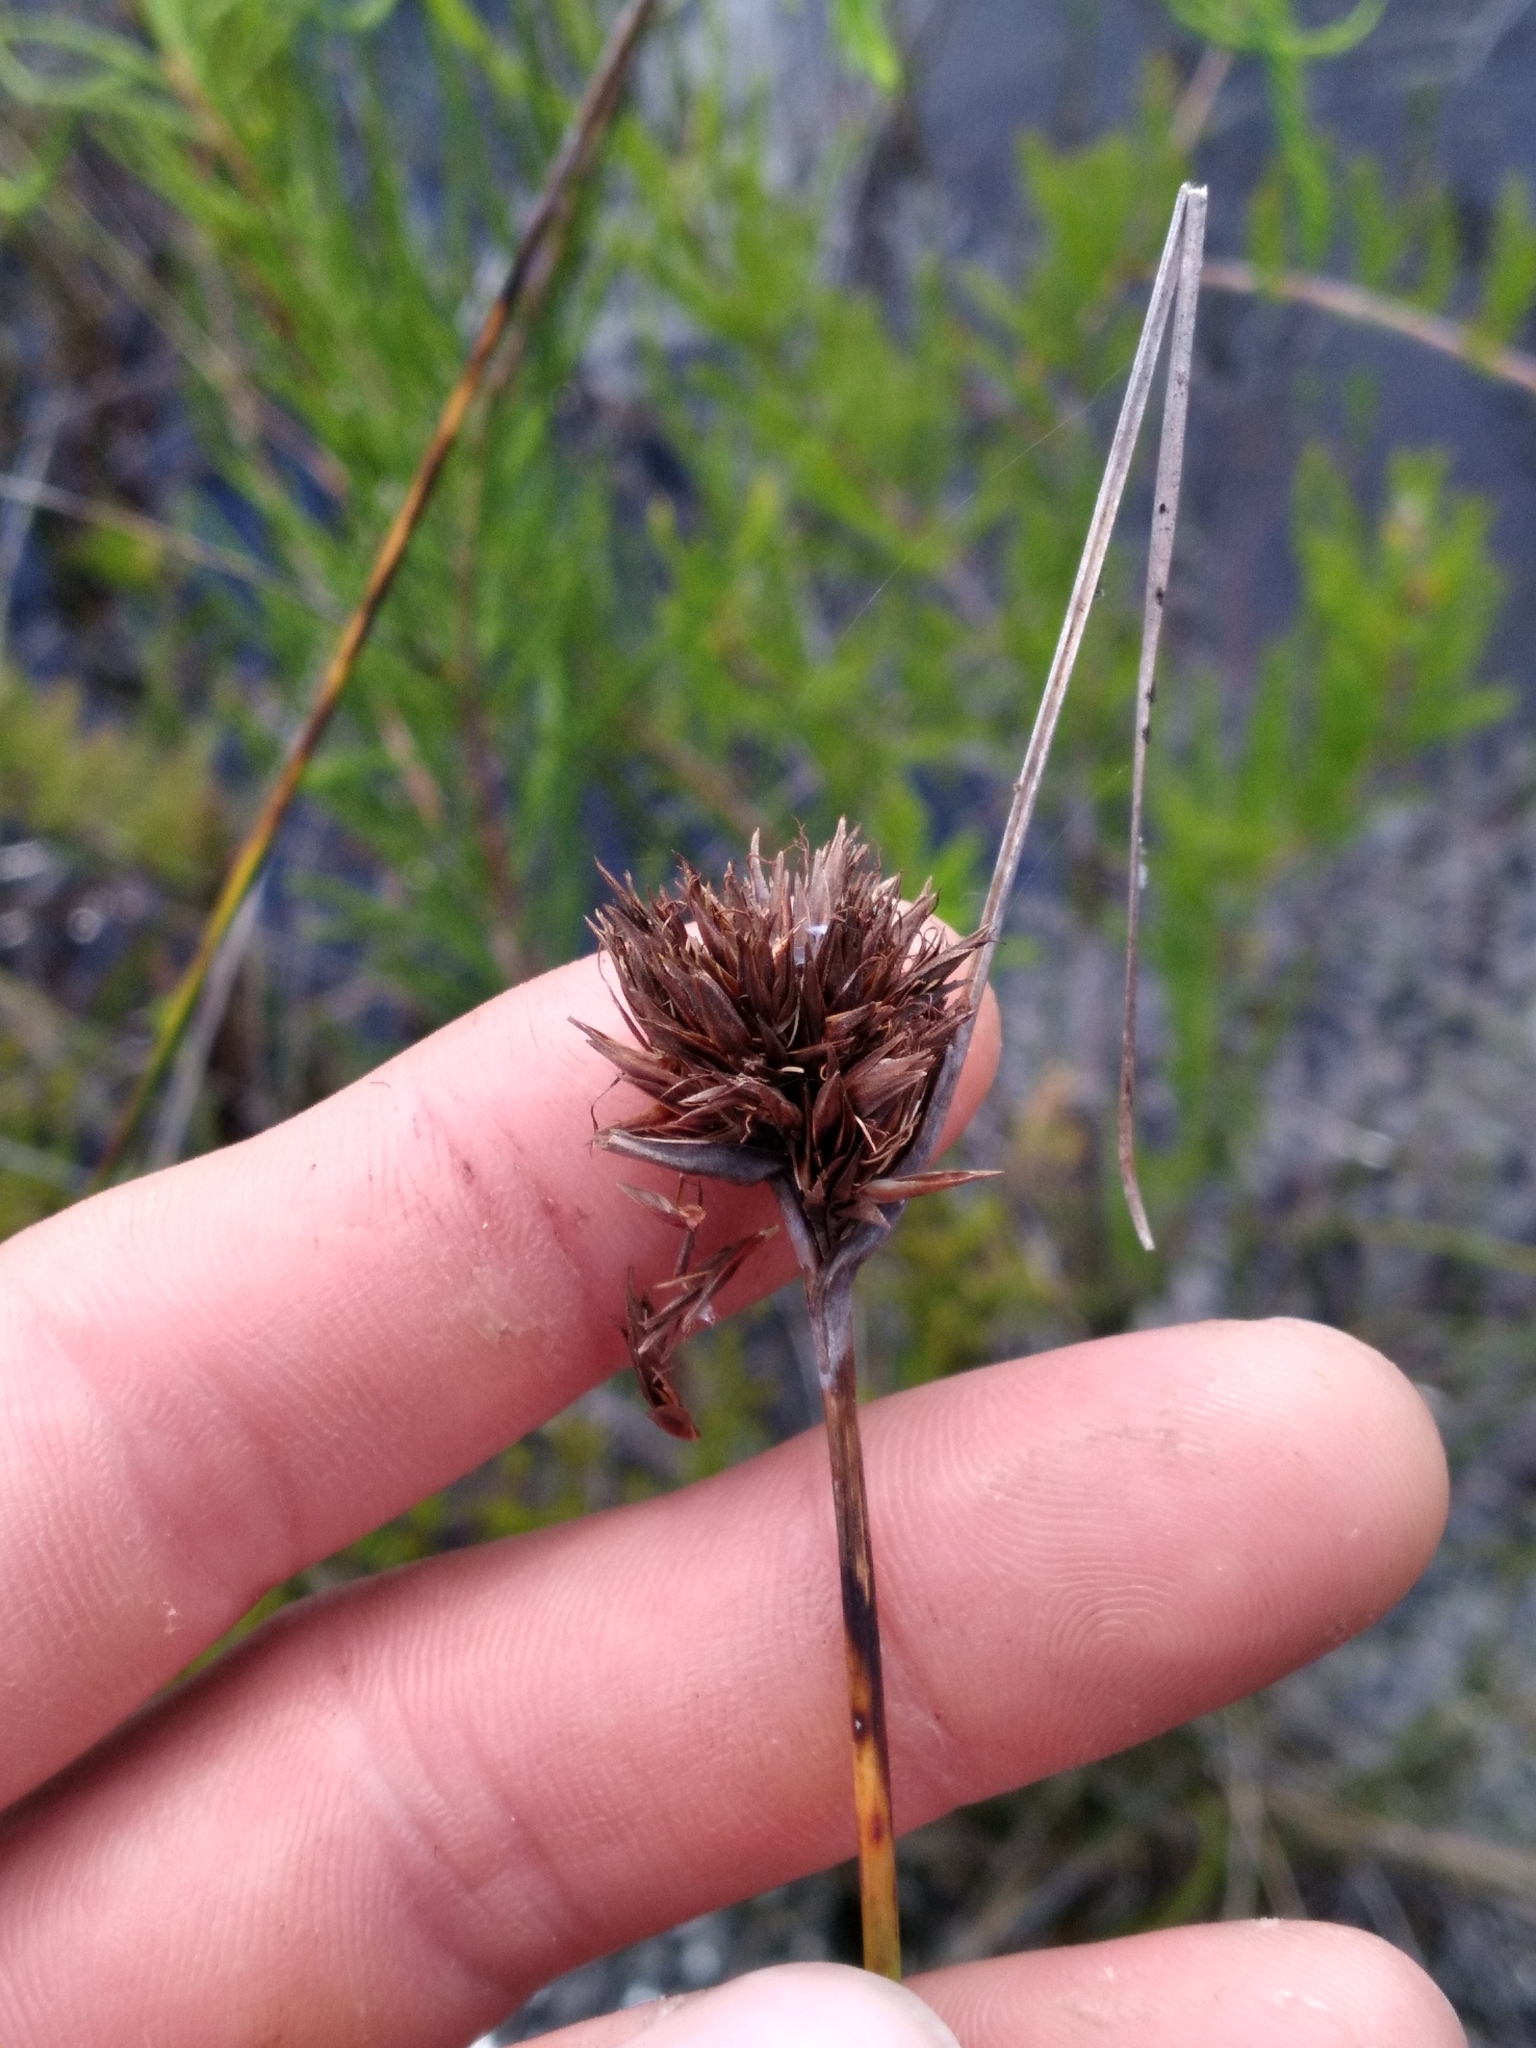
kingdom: Plantae
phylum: Tracheophyta
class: Liliopsida
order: Poales
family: Cyperaceae
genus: Schoenus
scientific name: Schoenus nigricans
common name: Black bog-rush
